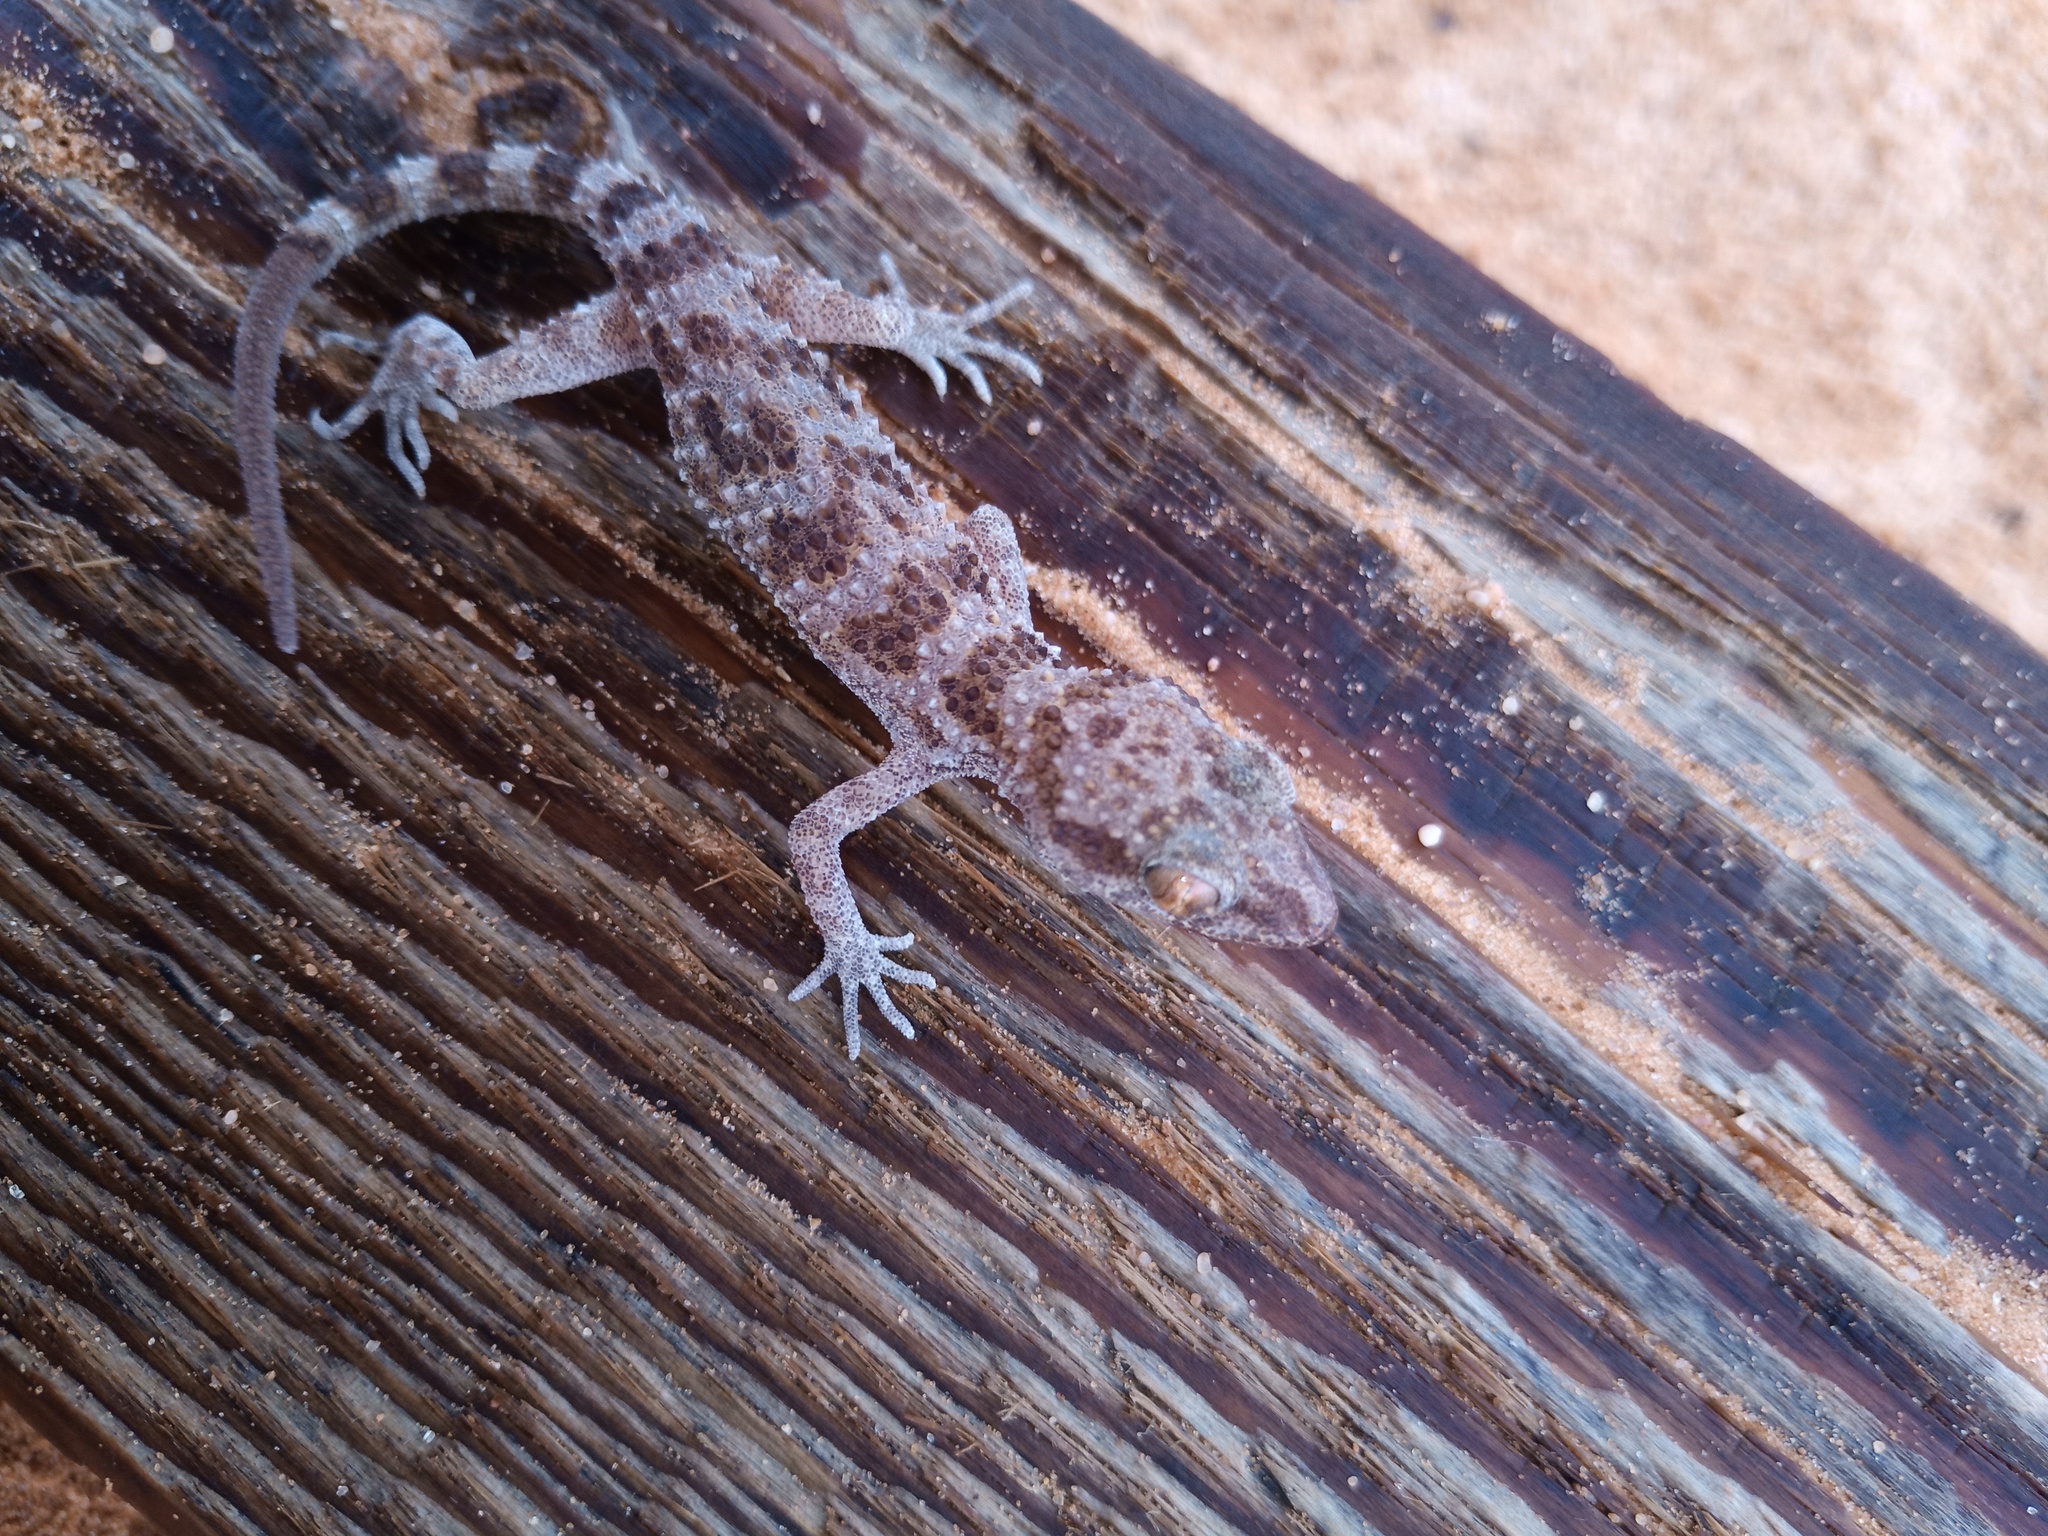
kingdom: Animalia
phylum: Chordata
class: Squamata
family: Gekkonidae
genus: Bunopus
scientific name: Bunopus tuberculatus
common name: Southern tuberculated gecko
